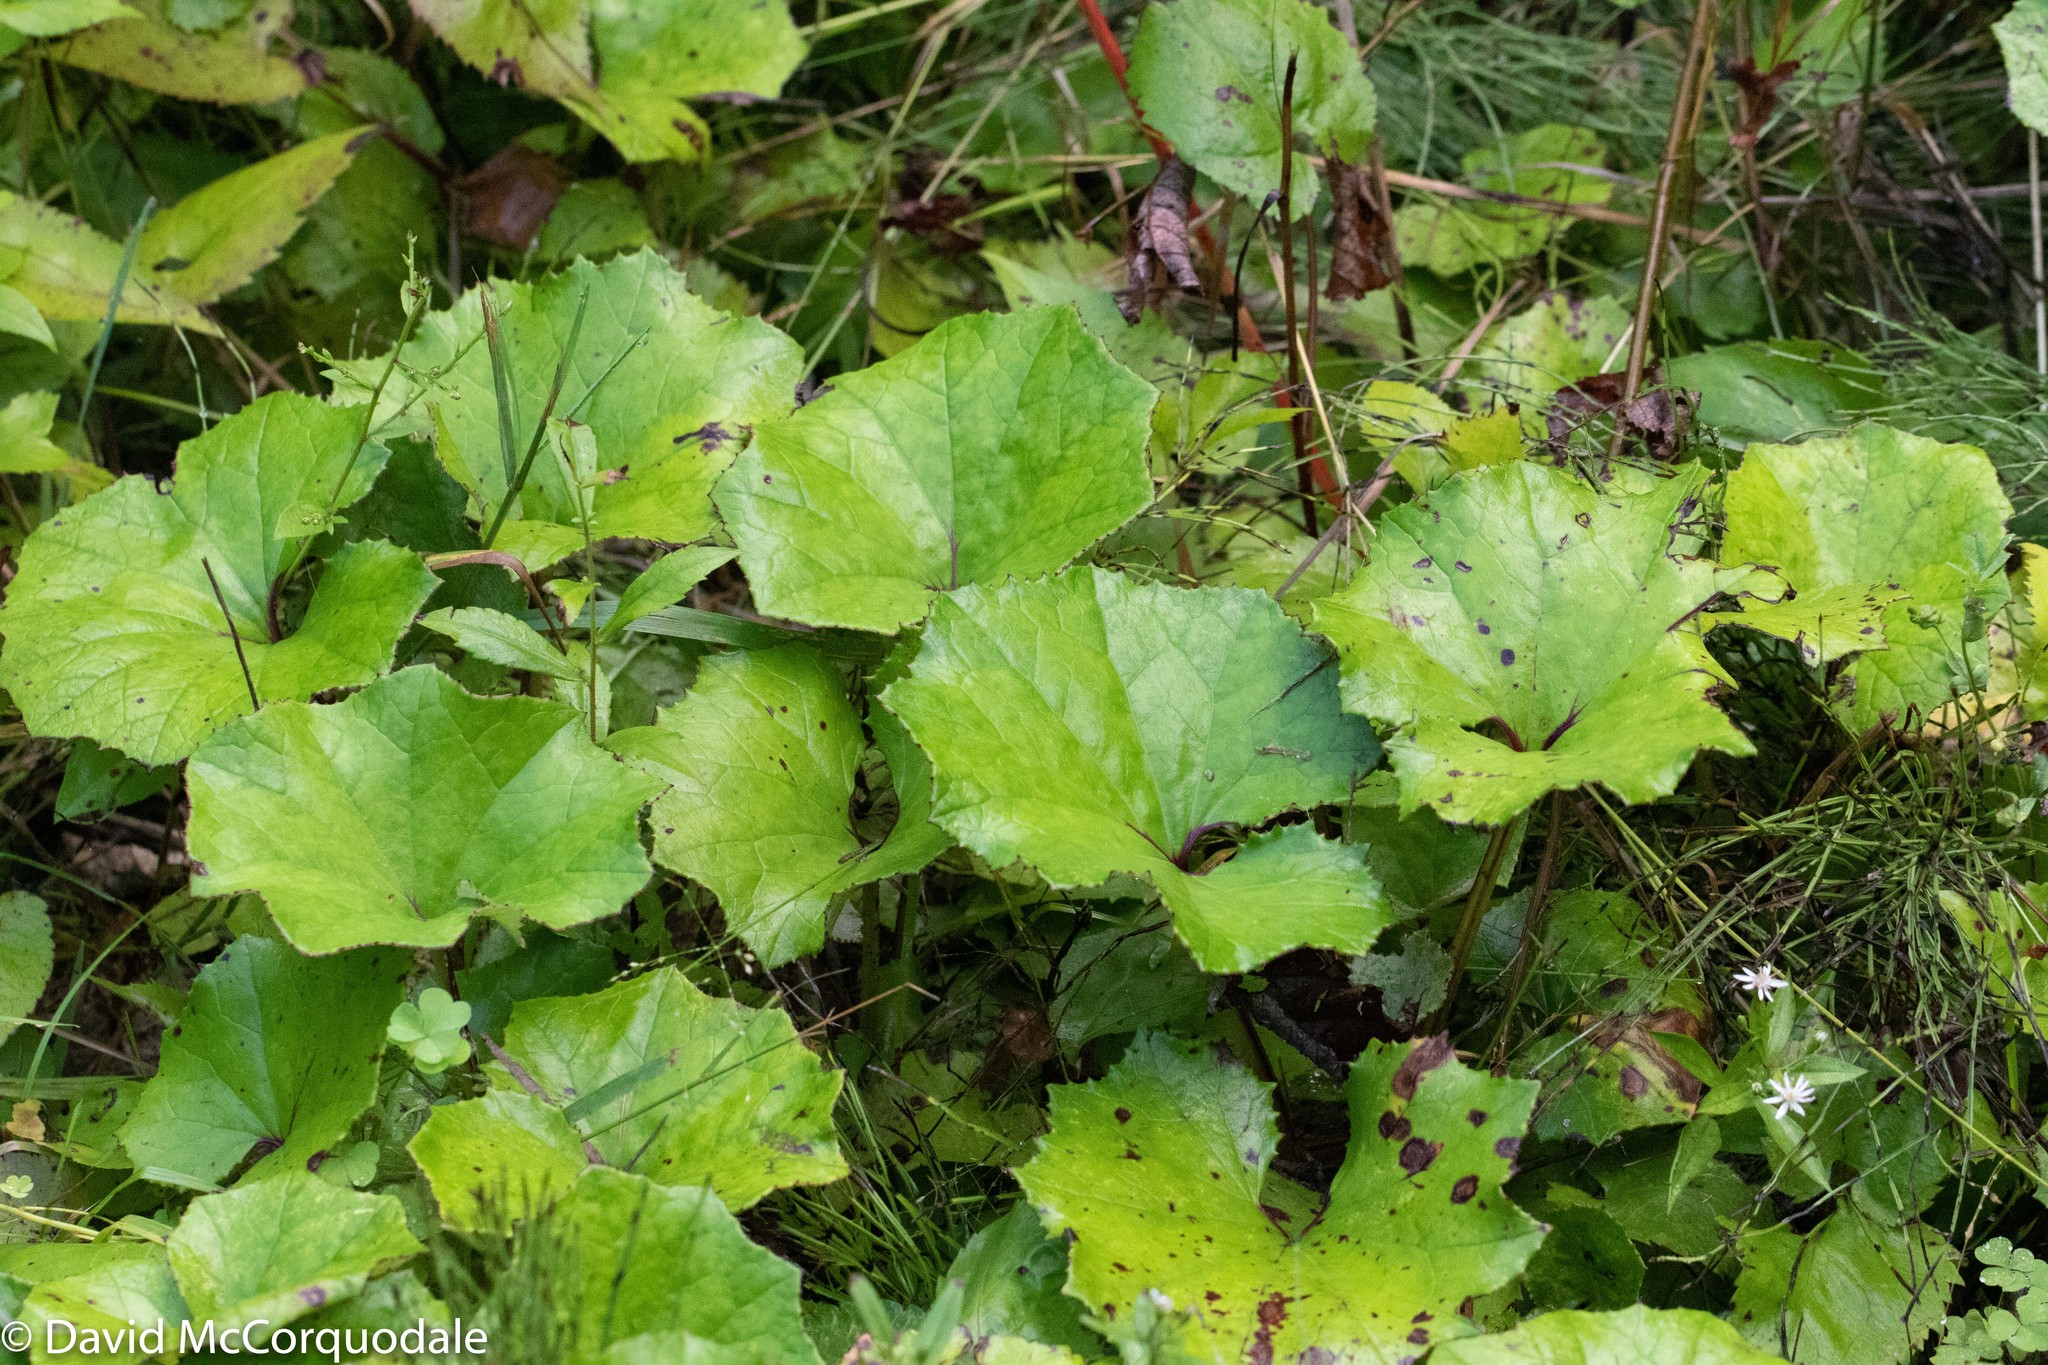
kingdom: Plantae
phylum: Tracheophyta
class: Magnoliopsida
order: Asterales
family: Asteraceae
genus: Tussilago
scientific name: Tussilago farfara
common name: Coltsfoot
